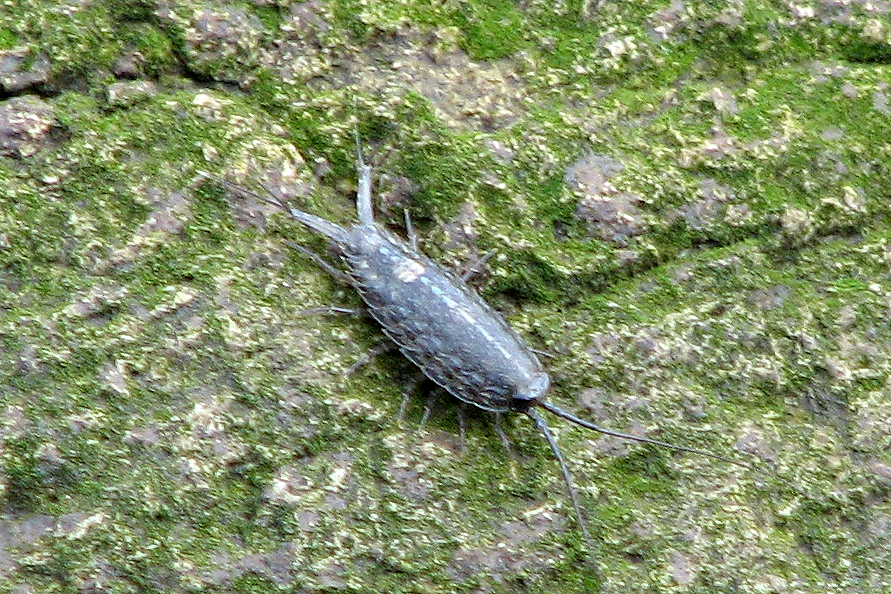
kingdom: Animalia
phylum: Arthropoda
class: Malacostraca
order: Isopoda
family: Ligiidae
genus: Ligia
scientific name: Ligia exotica
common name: Wharf roach
